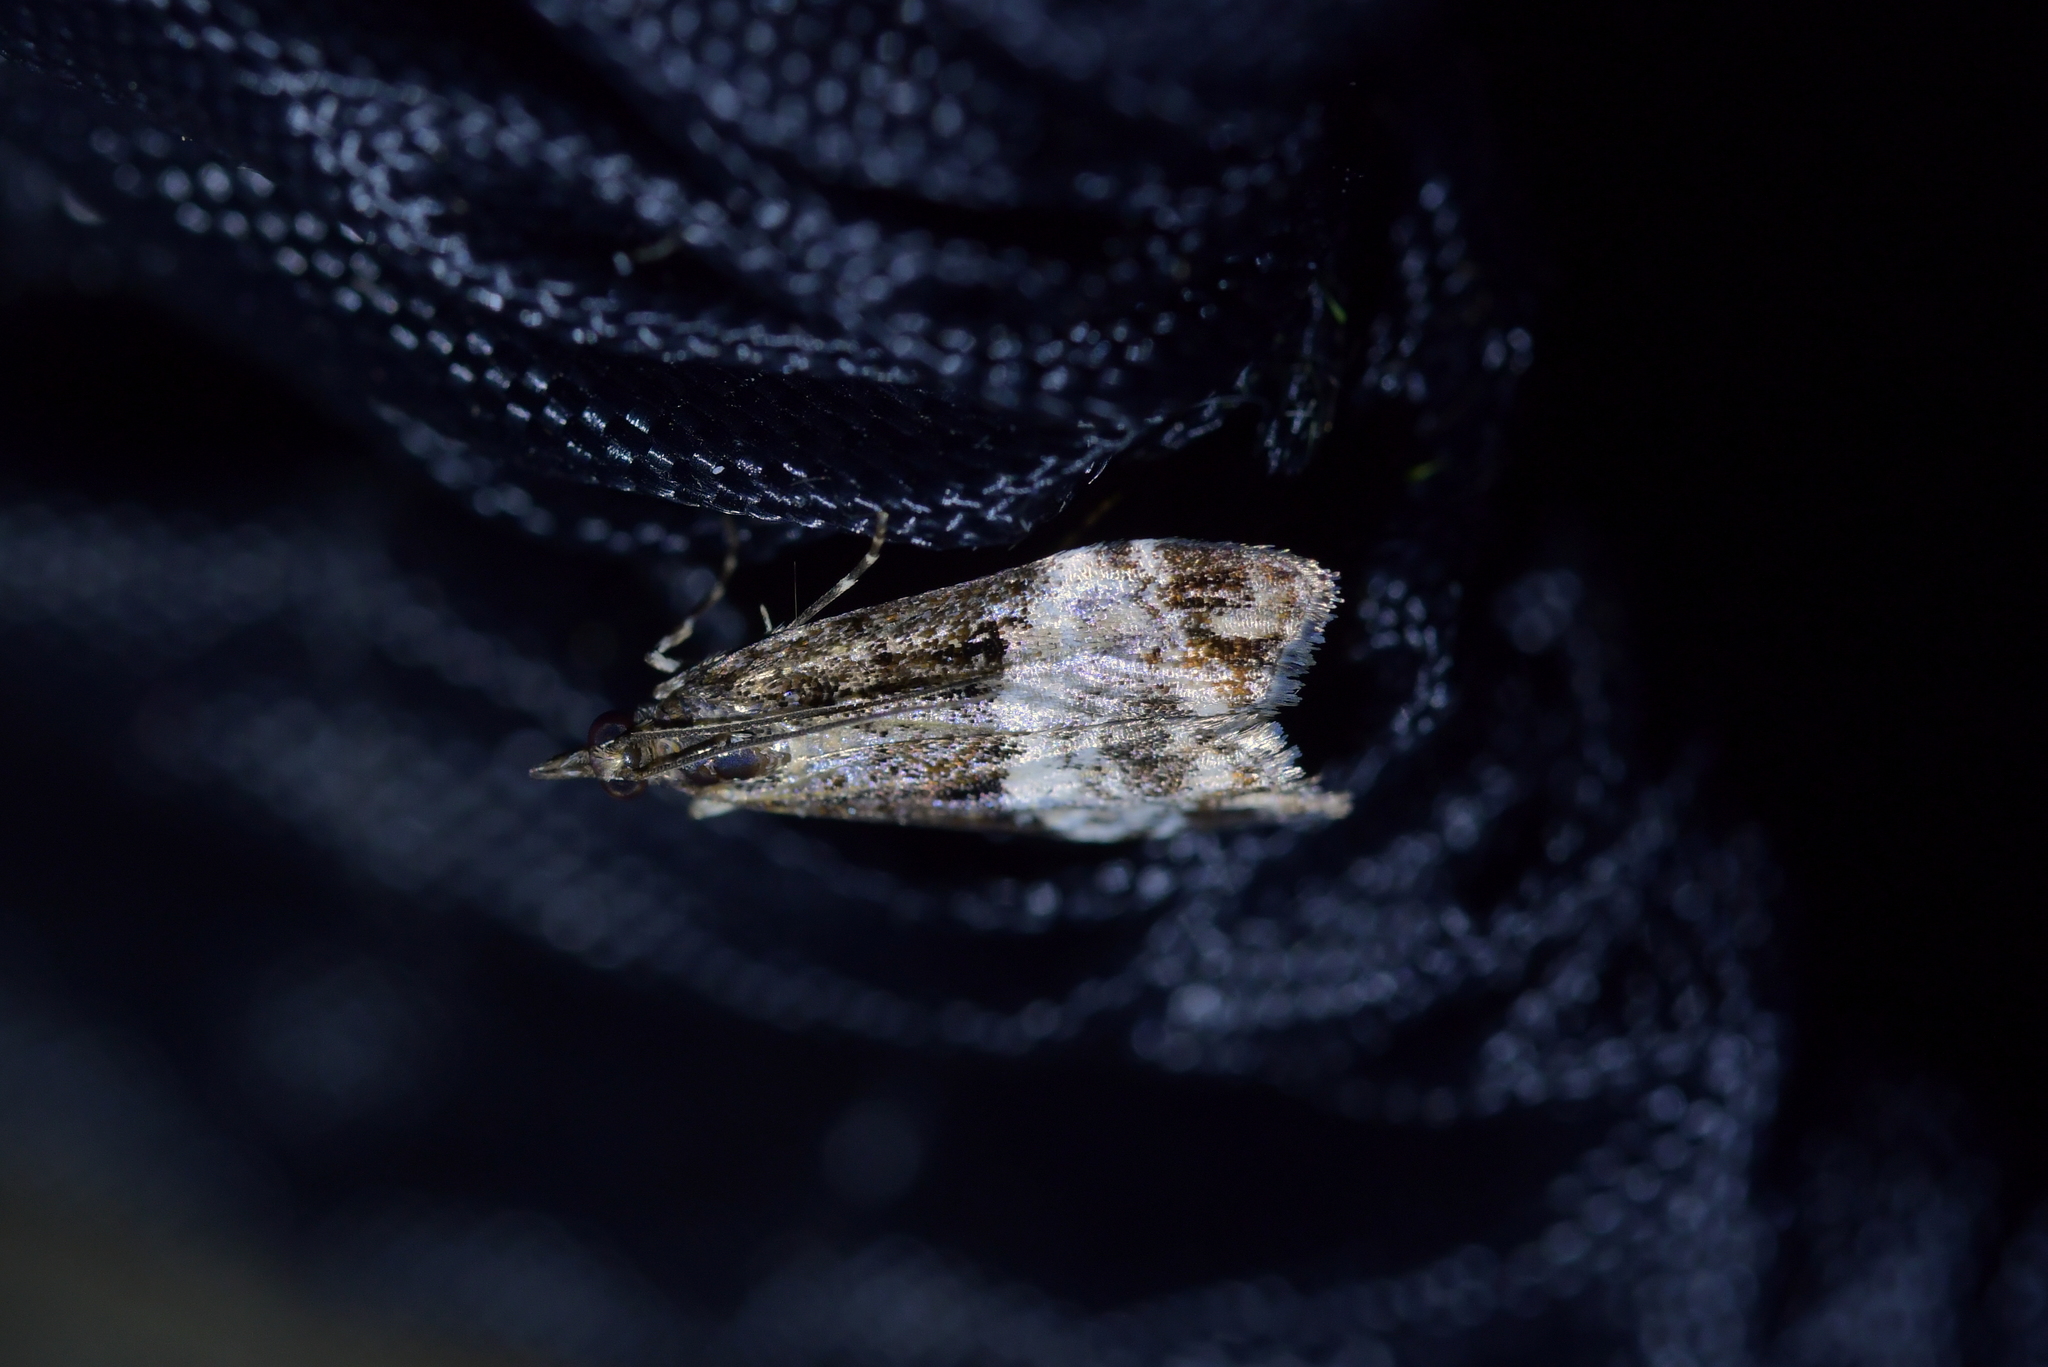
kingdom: Animalia
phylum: Arthropoda
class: Insecta
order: Lepidoptera
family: Crambidae
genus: Scoparia
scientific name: Scoparia minusculalis
